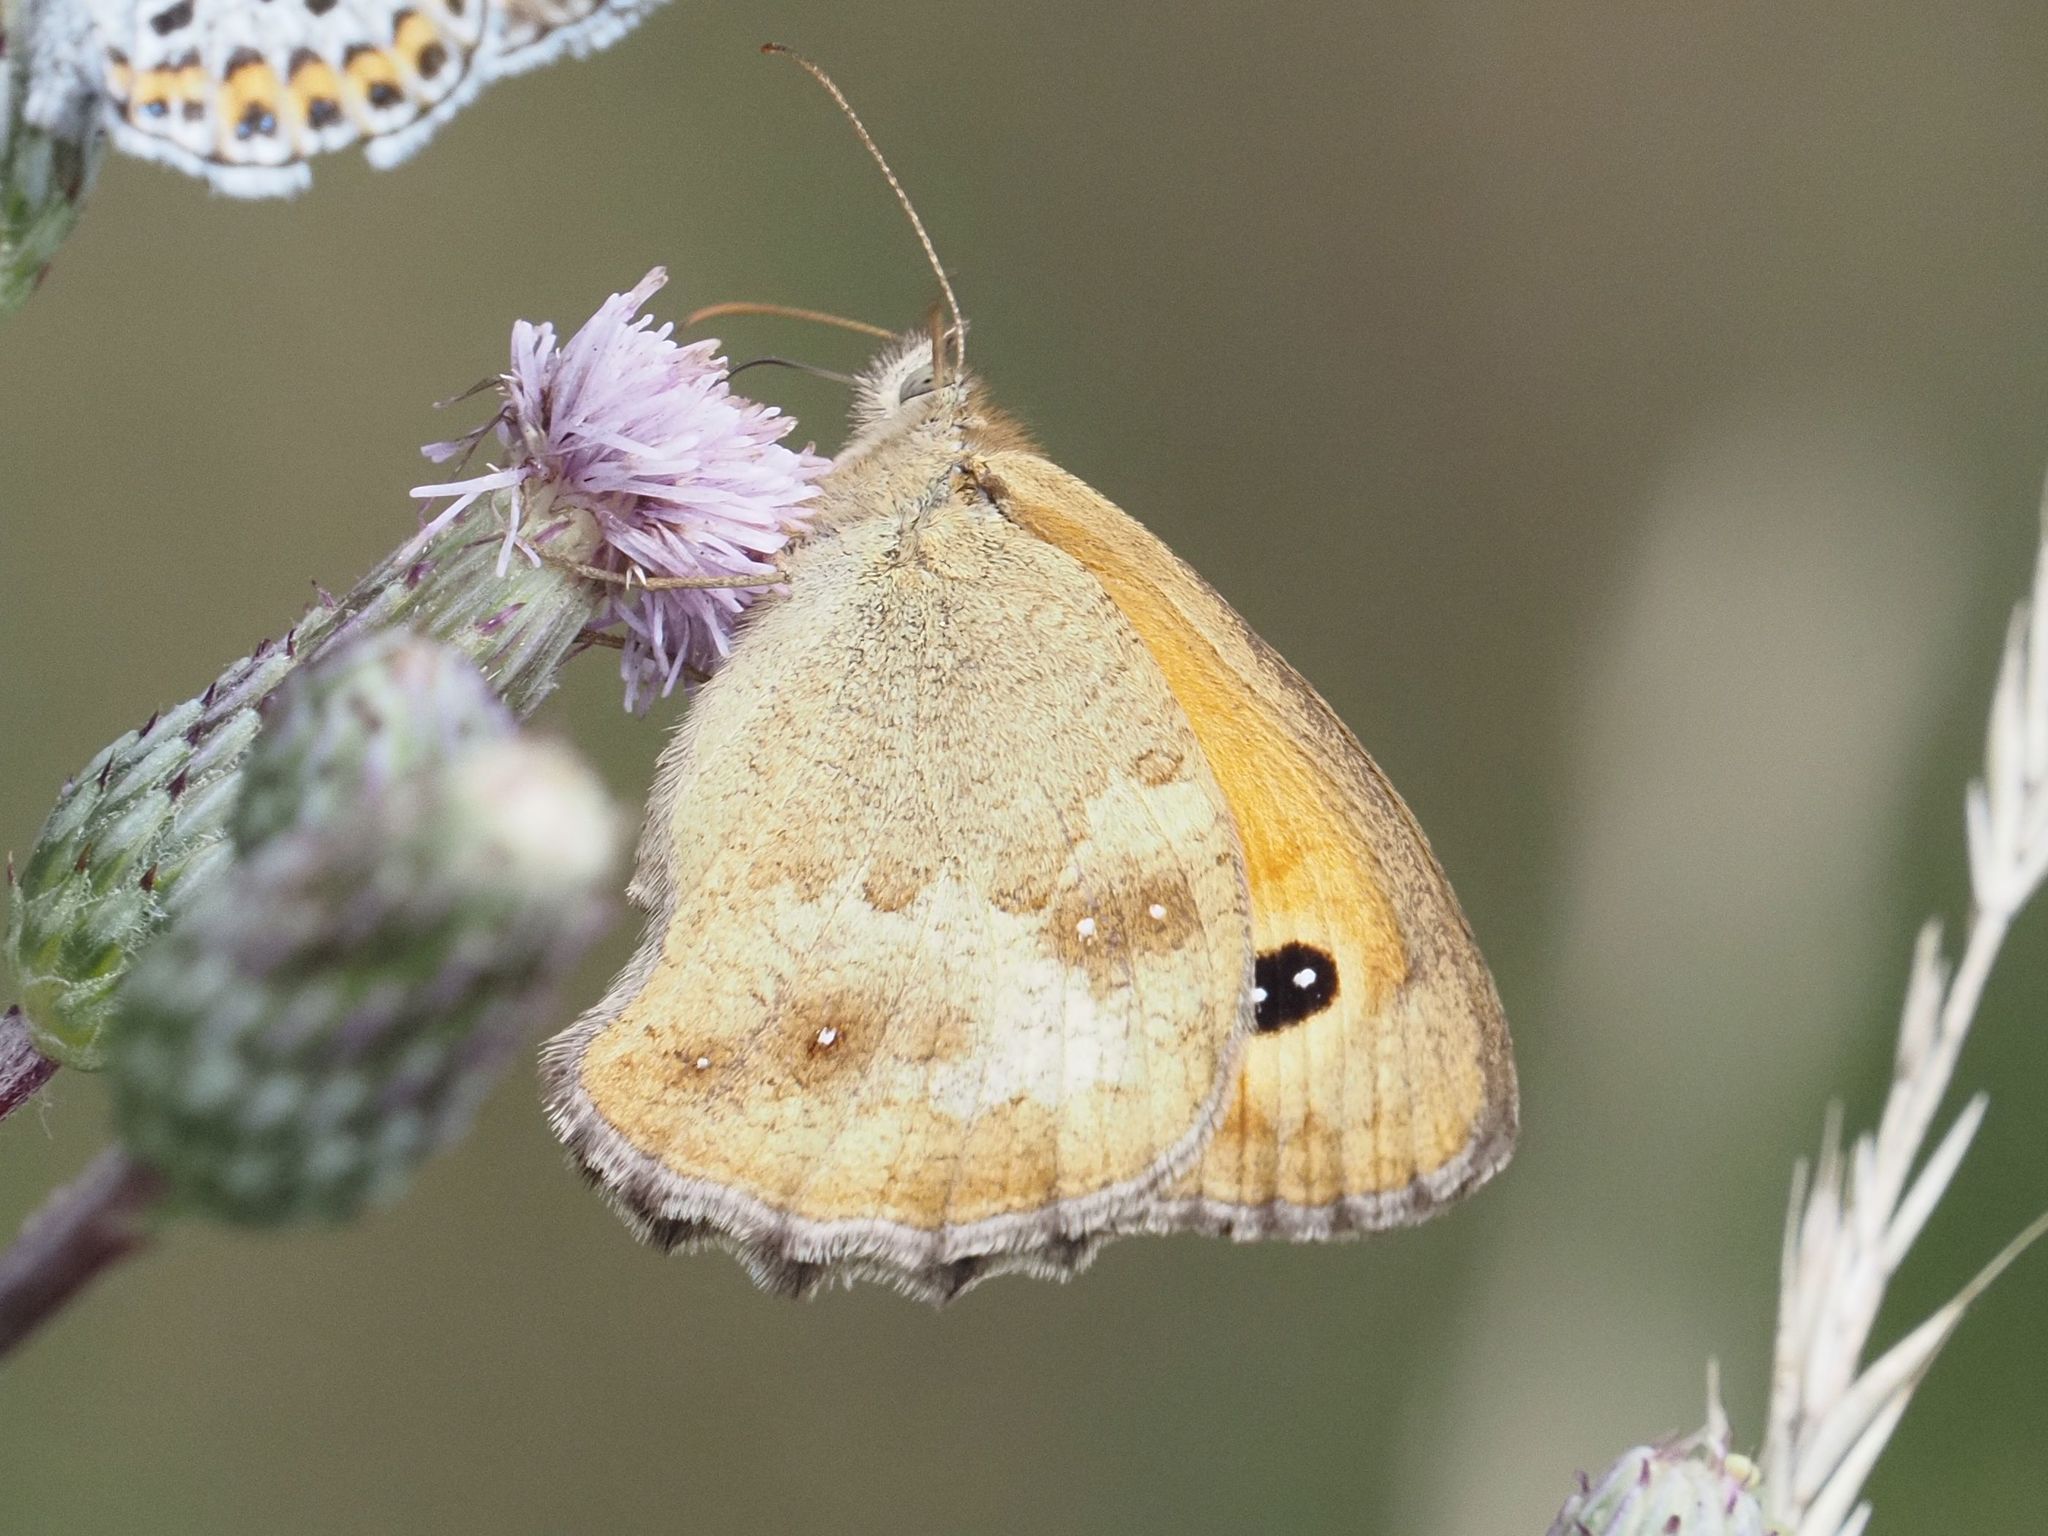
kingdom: Animalia
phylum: Arthropoda
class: Insecta
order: Lepidoptera
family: Nymphalidae
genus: Pyronia
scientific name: Pyronia tithonus
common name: Gatekeeper
